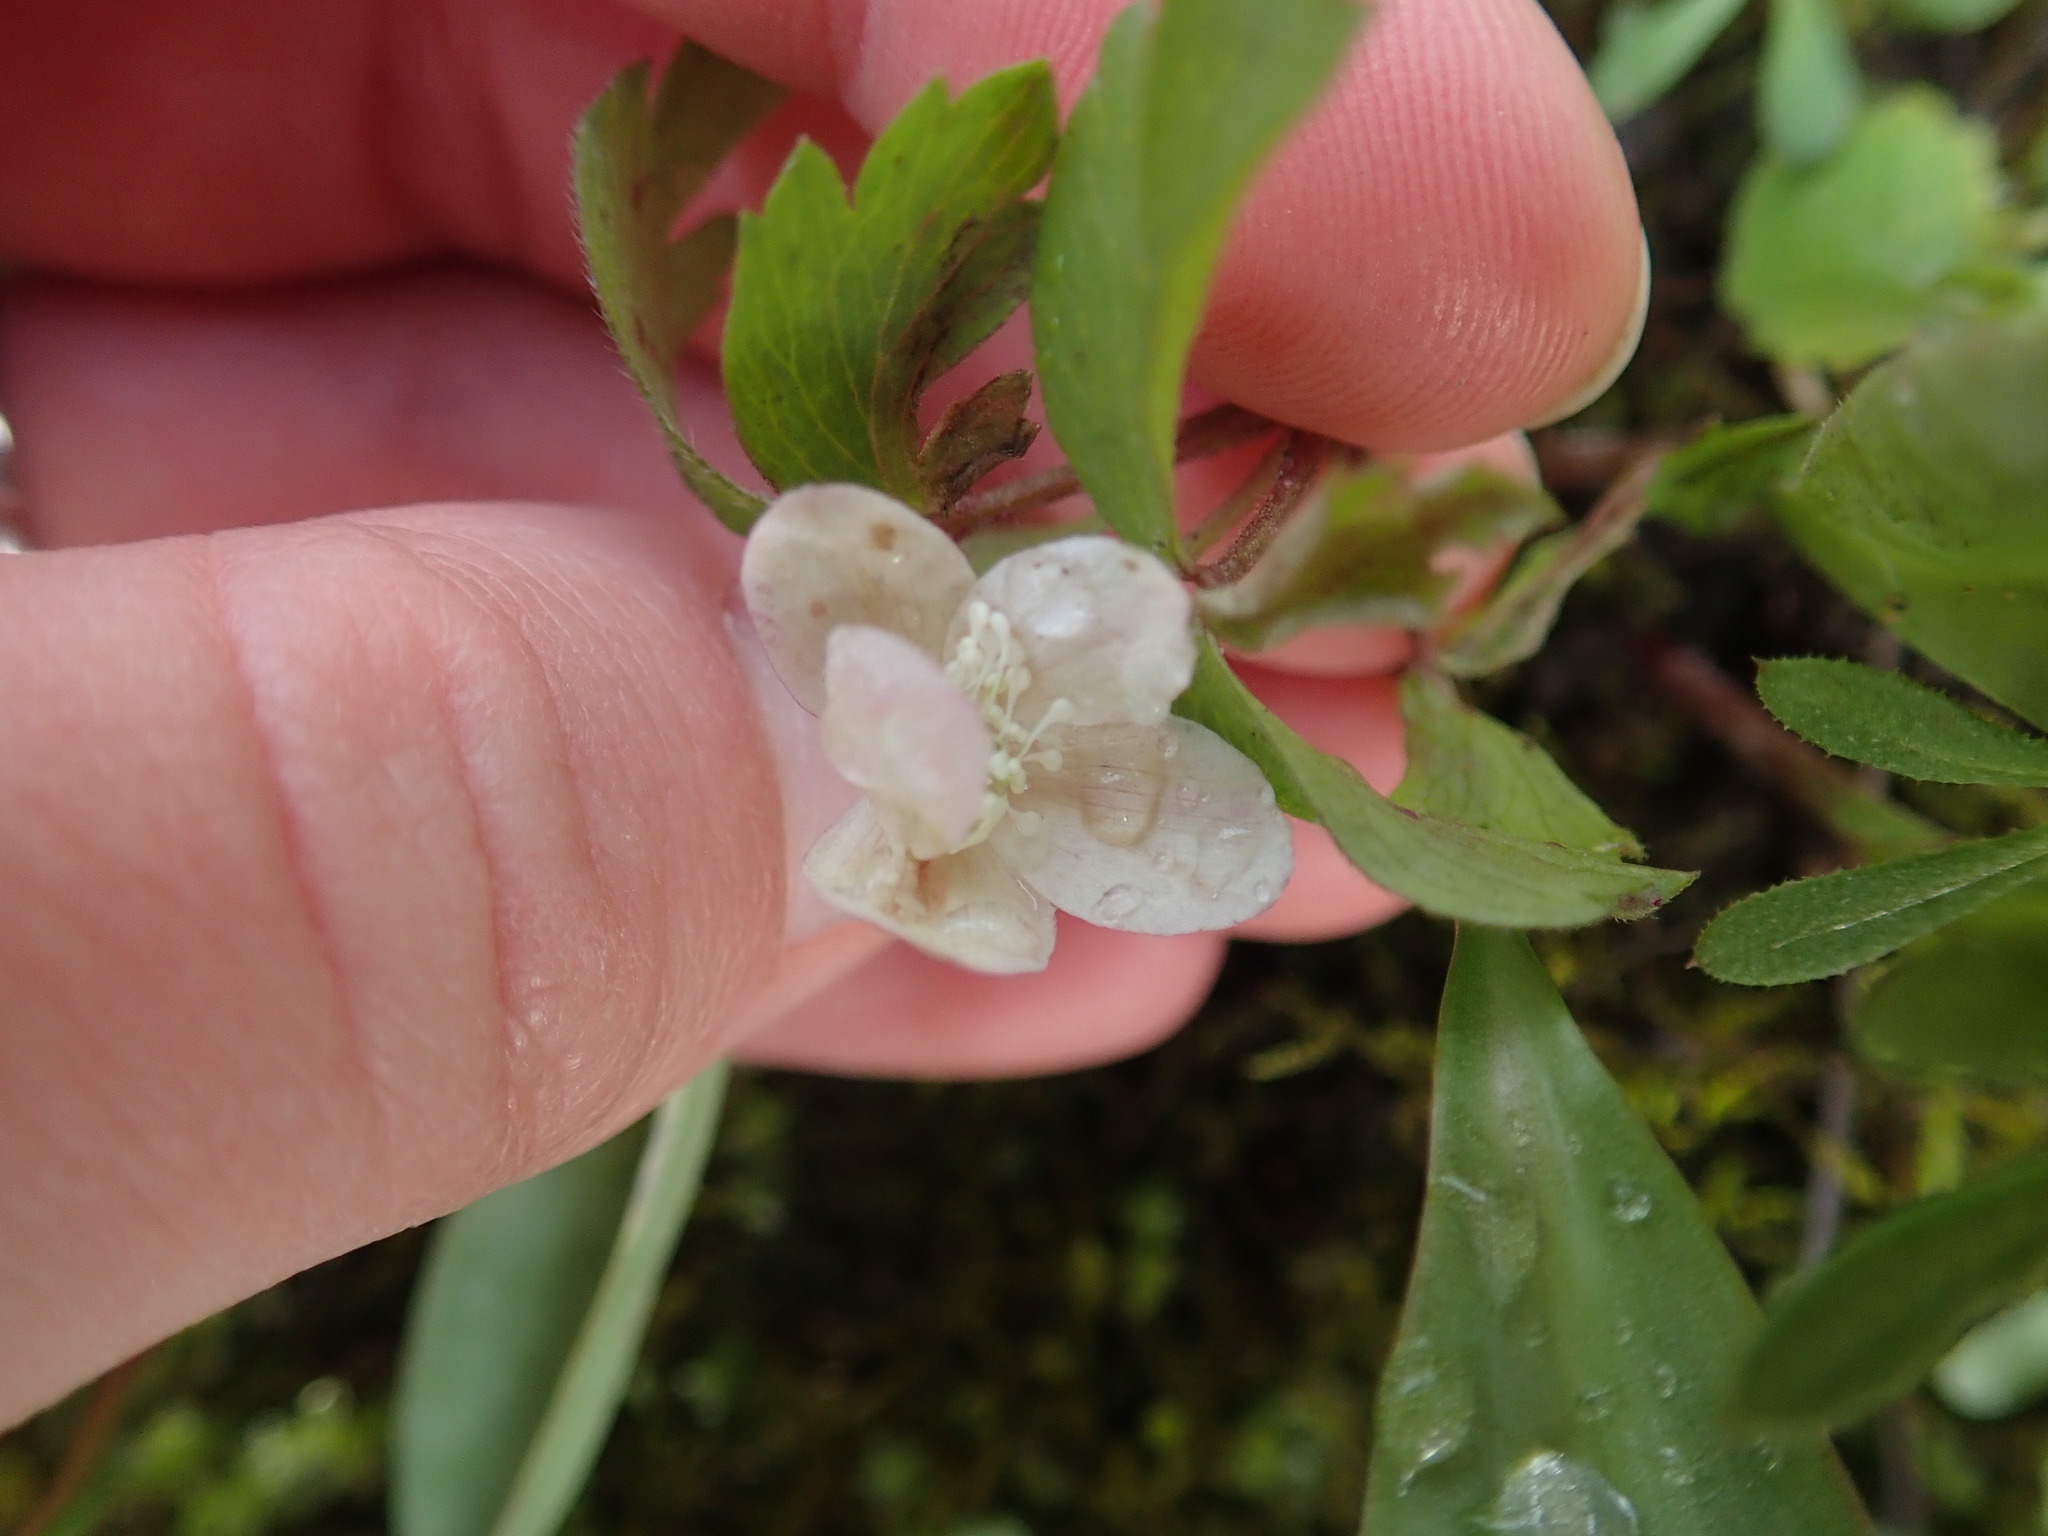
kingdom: Plantae
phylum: Tracheophyta
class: Magnoliopsida
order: Ranunculales
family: Ranunculaceae
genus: Anemone
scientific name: Anemone quinquefolia
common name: Wood anemone
